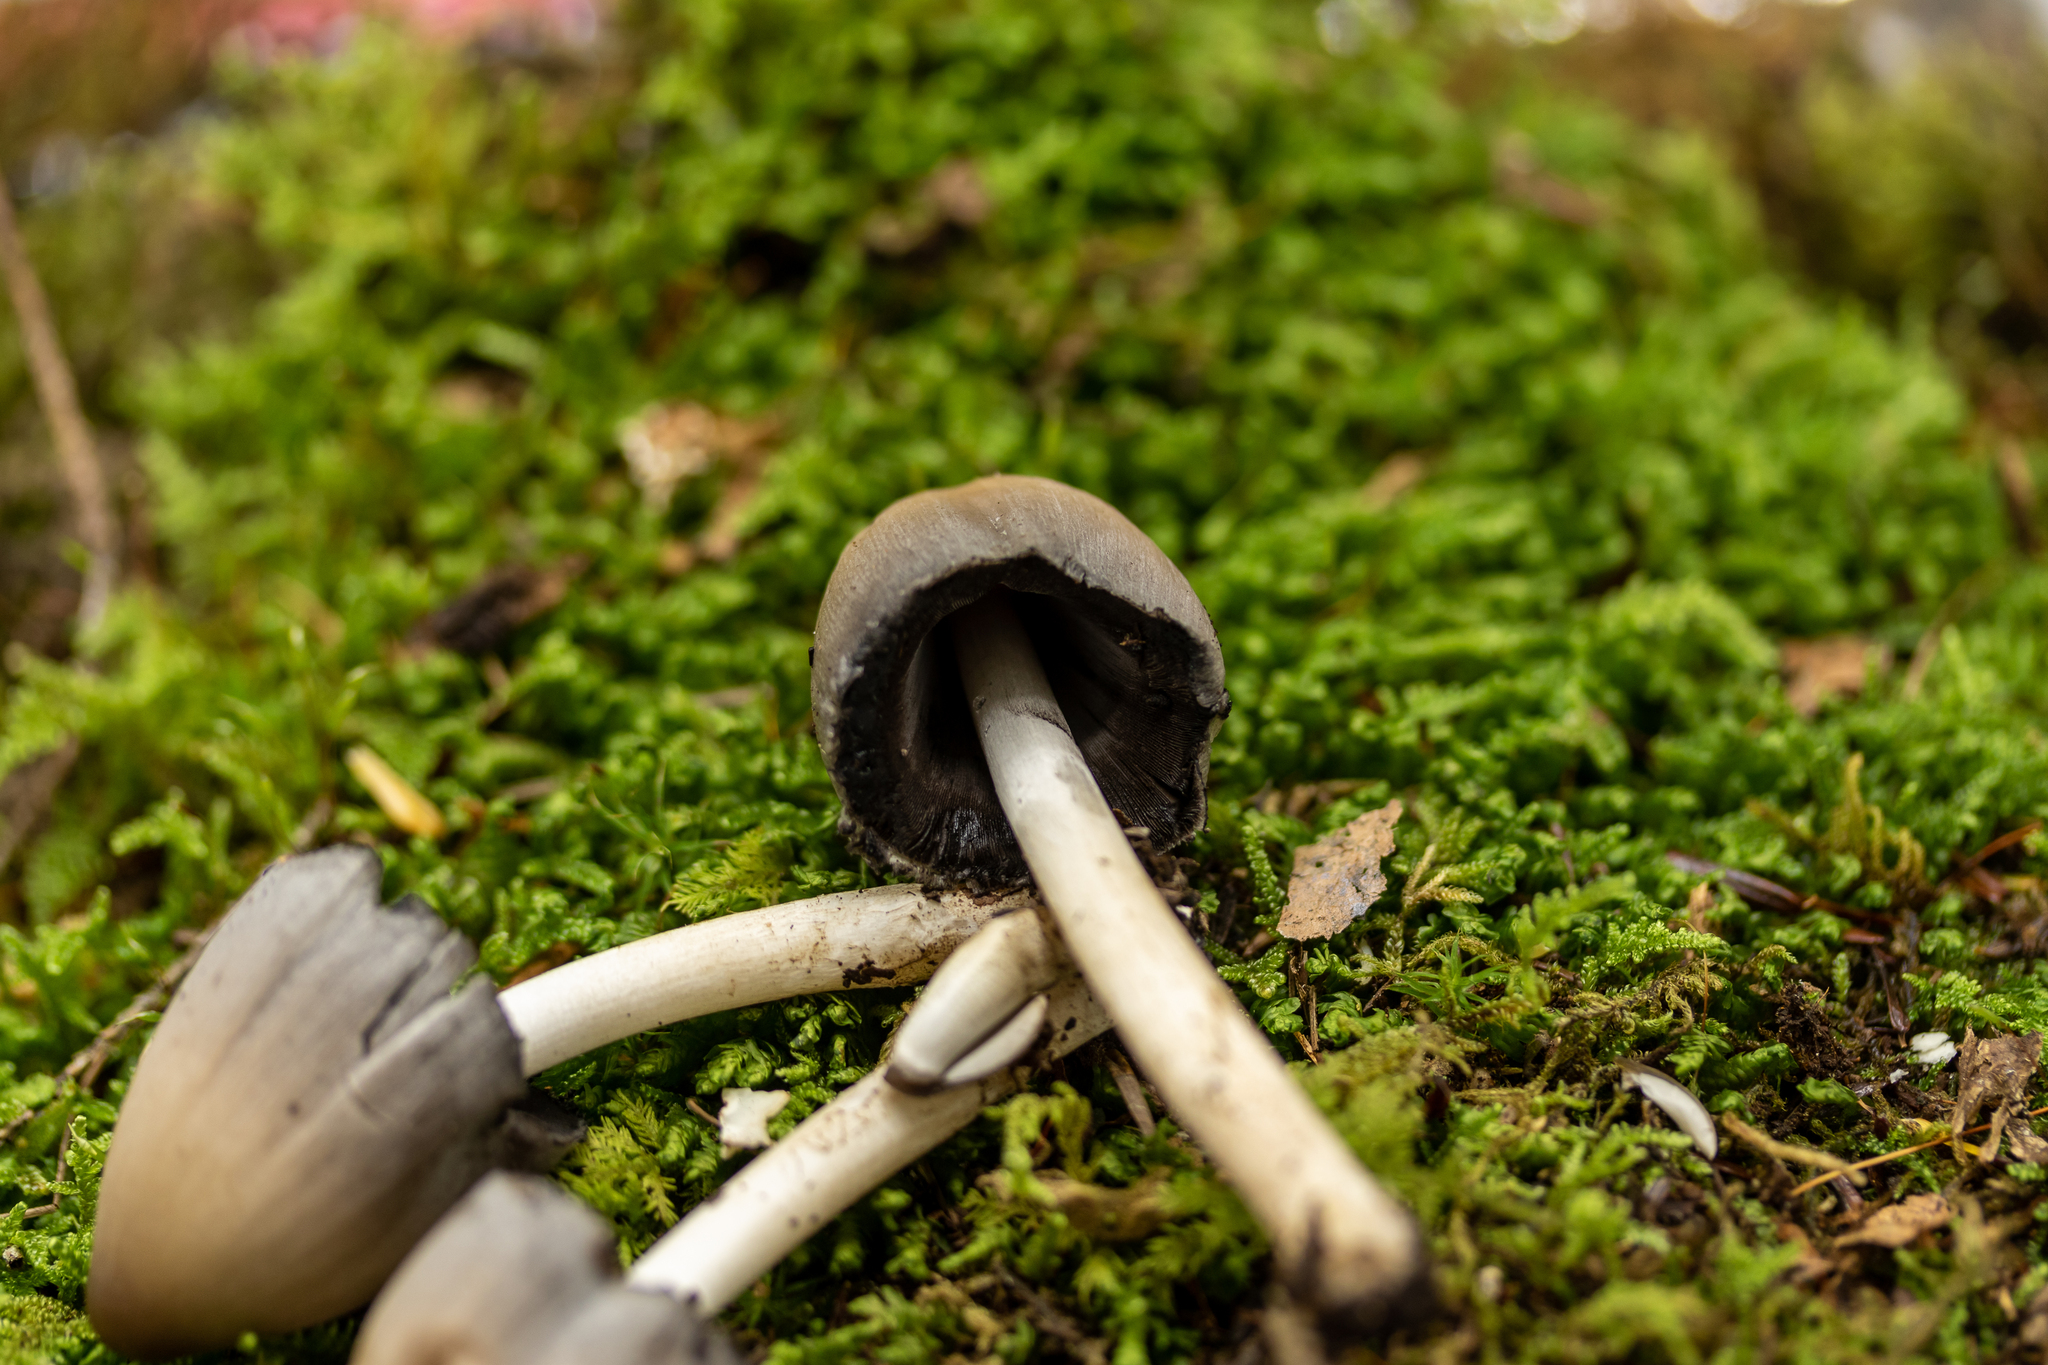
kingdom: Fungi
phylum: Basidiomycota
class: Agaricomycetes
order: Agaricales
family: Psathyrellaceae
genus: Coprinopsis
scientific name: Coprinopsis pinguispora
